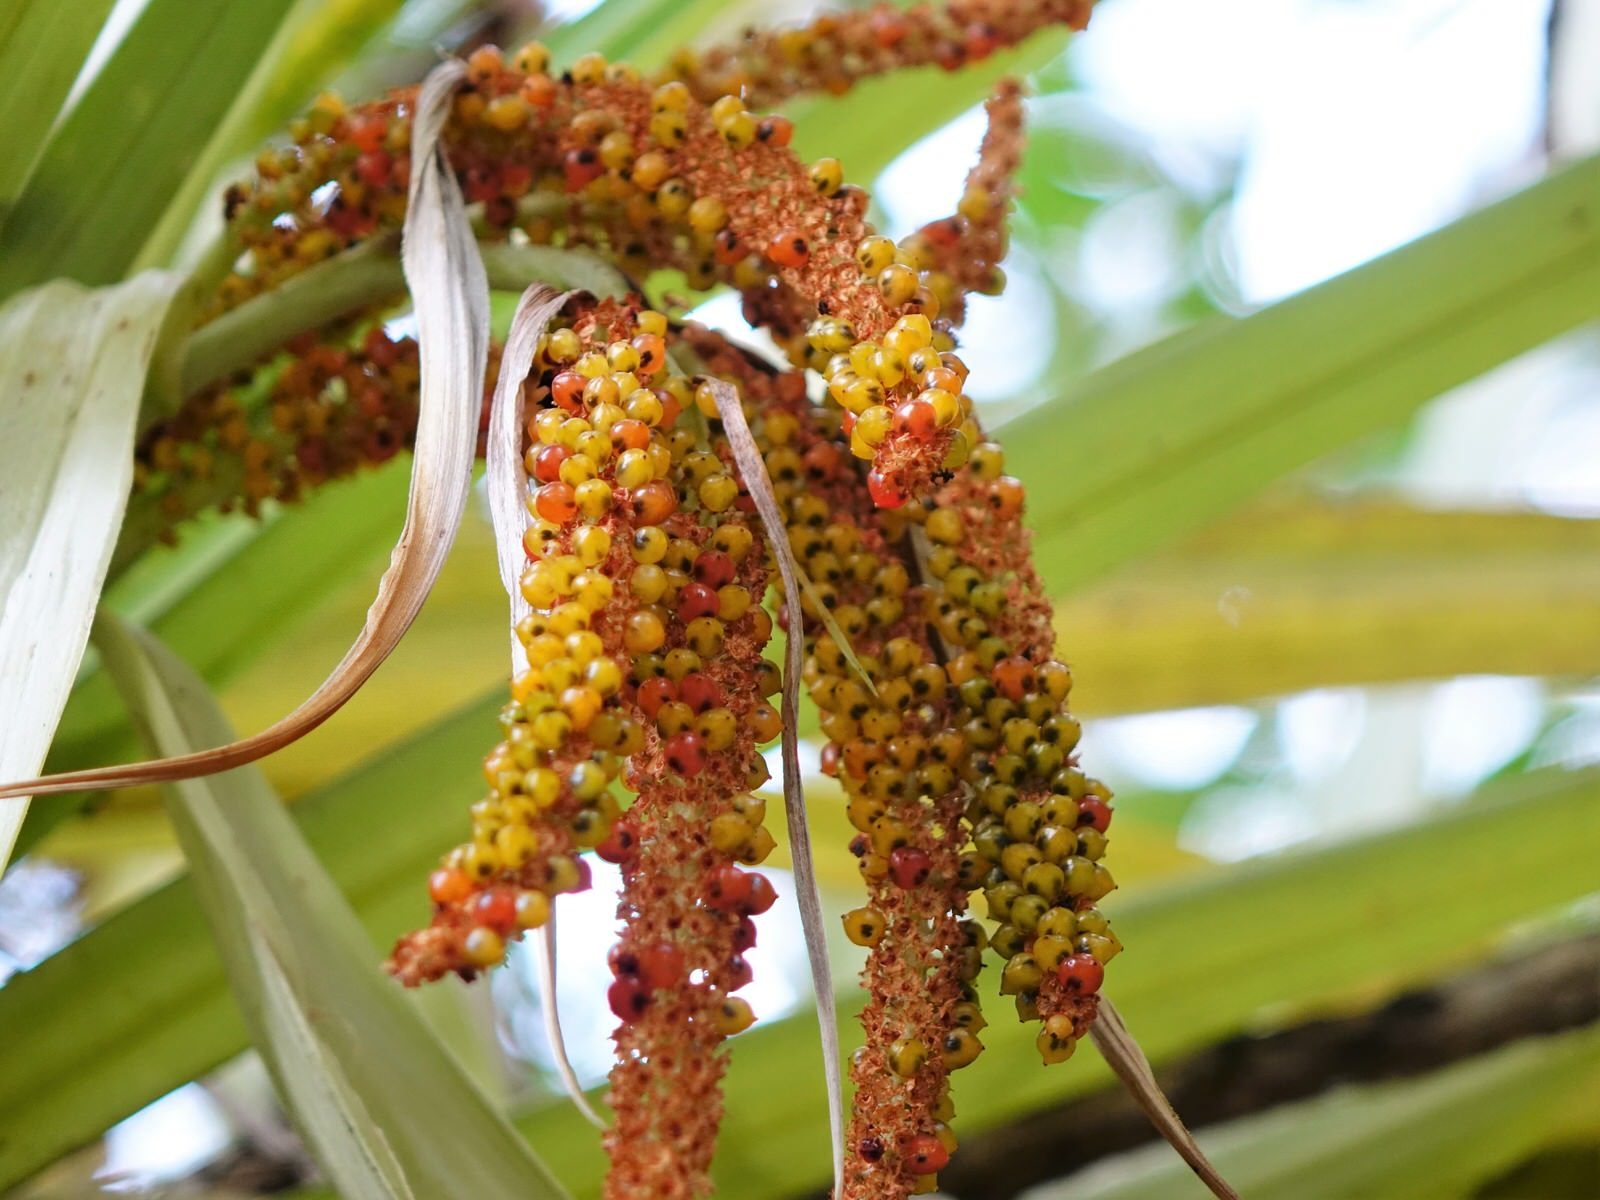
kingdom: Plantae
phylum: Tracheophyta
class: Liliopsida
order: Asparagales
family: Asteliaceae
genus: Astelia
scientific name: Astelia hastata
